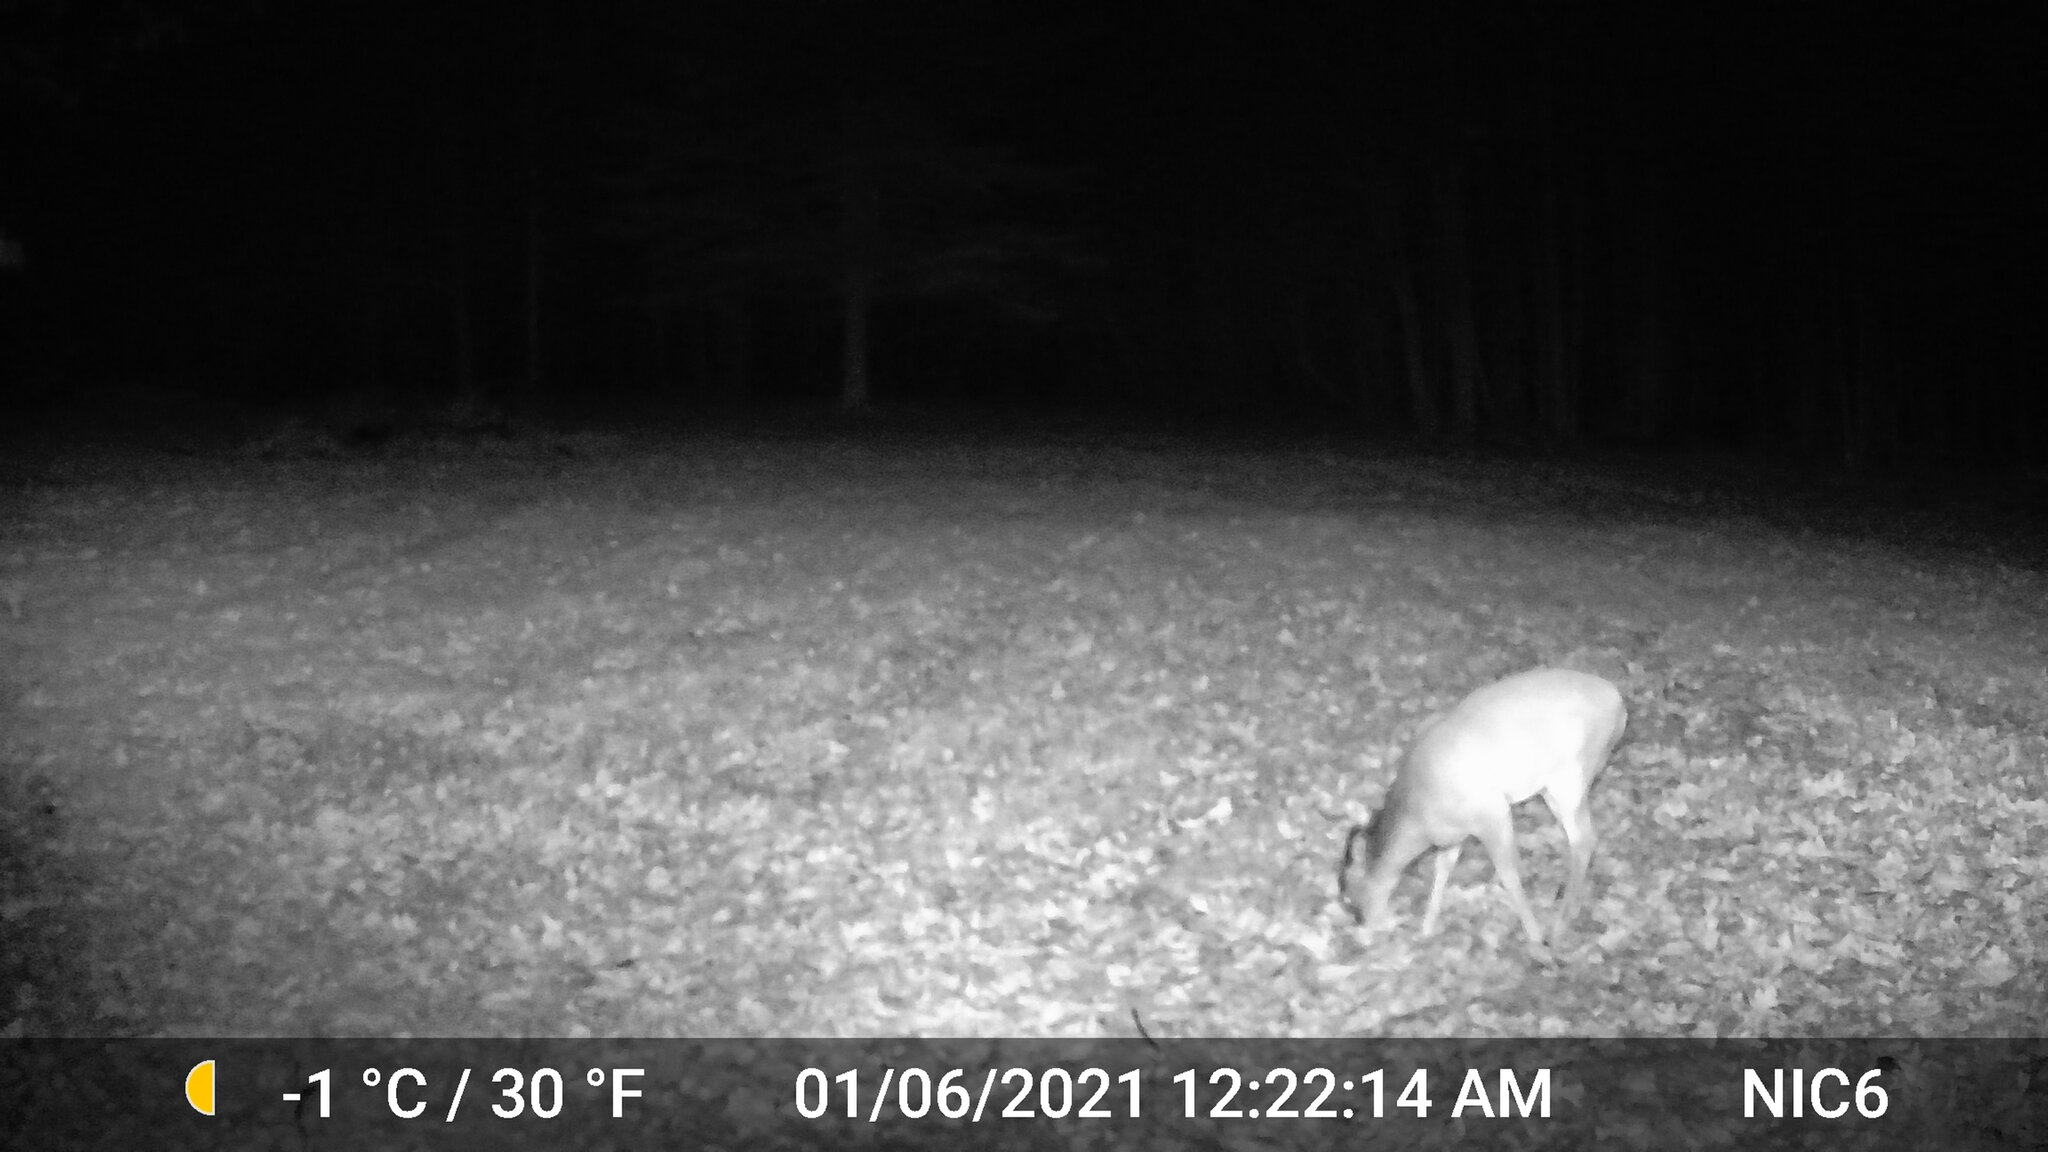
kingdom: Animalia
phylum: Chordata
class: Mammalia
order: Artiodactyla
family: Cervidae
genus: Odocoileus
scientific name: Odocoileus virginianus
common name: White-tailed deer
